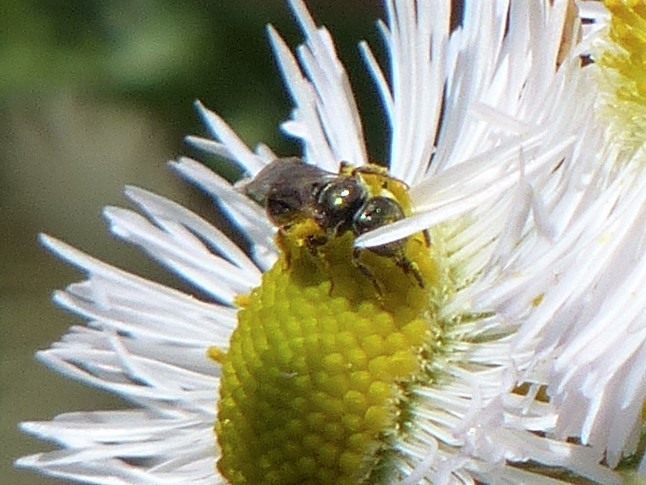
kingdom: Animalia
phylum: Arthropoda
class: Insecta
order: Hymenoptera
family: Halictidae
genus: Lasioglossum
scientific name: Lasioglossum
